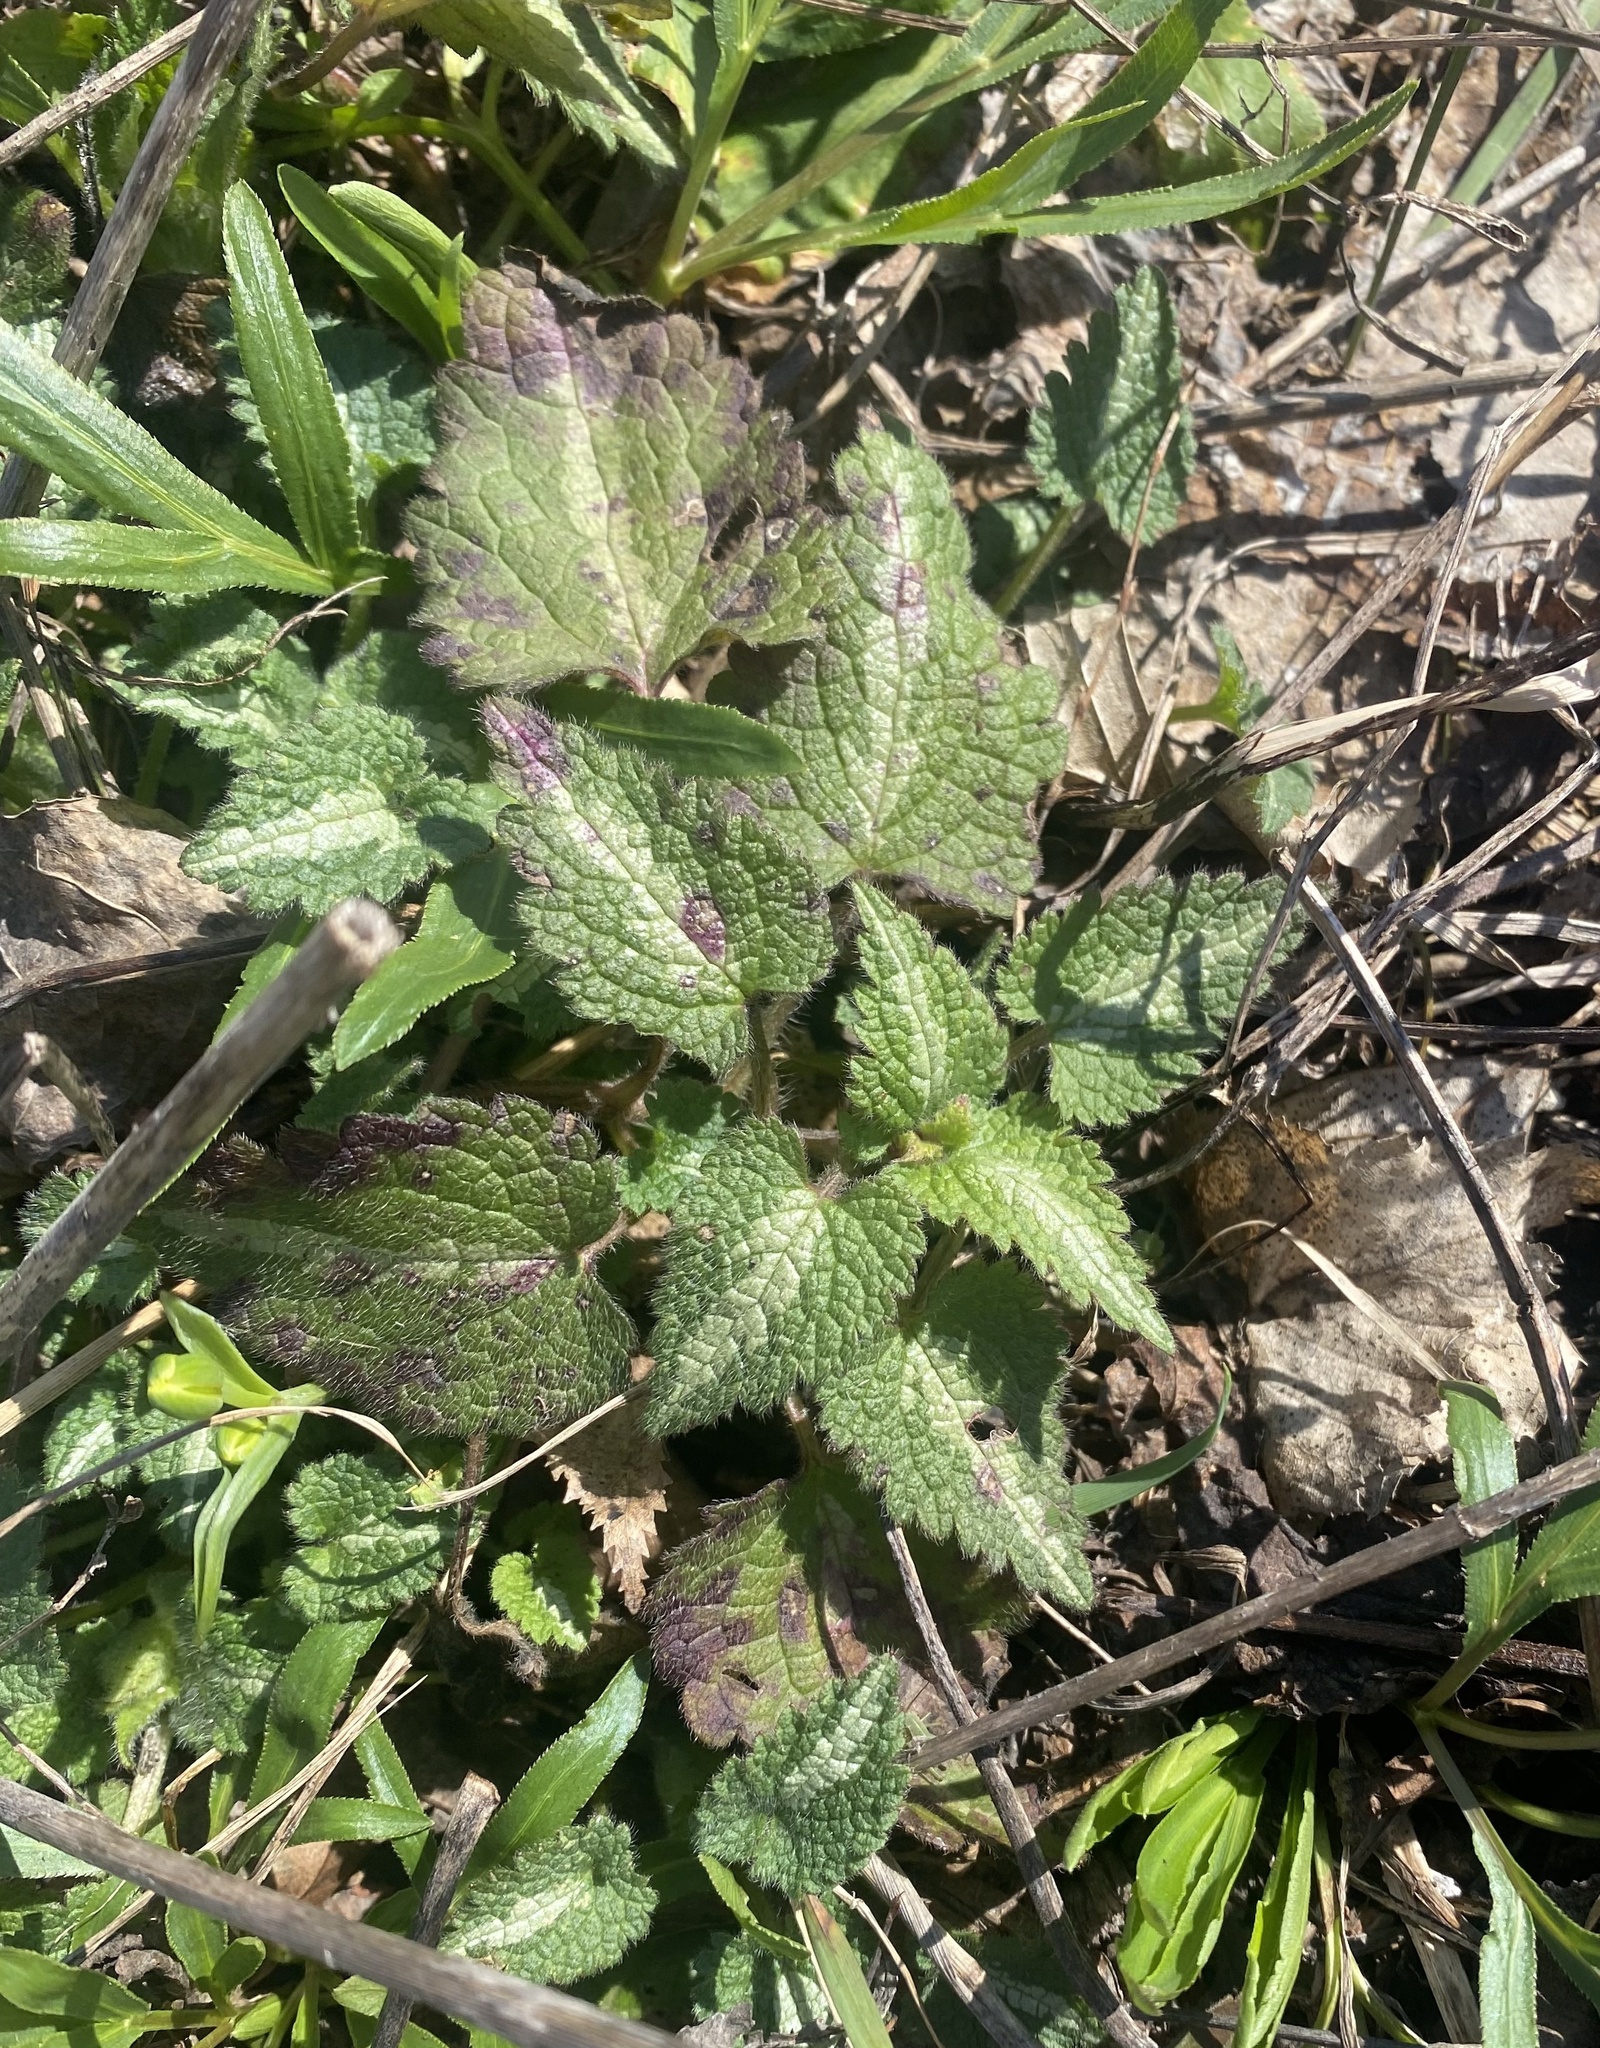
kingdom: Plantae
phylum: Tracheophyta
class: Magnoliopsida
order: Lamiales
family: Lamiaceae
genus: Lamium
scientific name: Lamium maculatum
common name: Spotted dead-nettle
